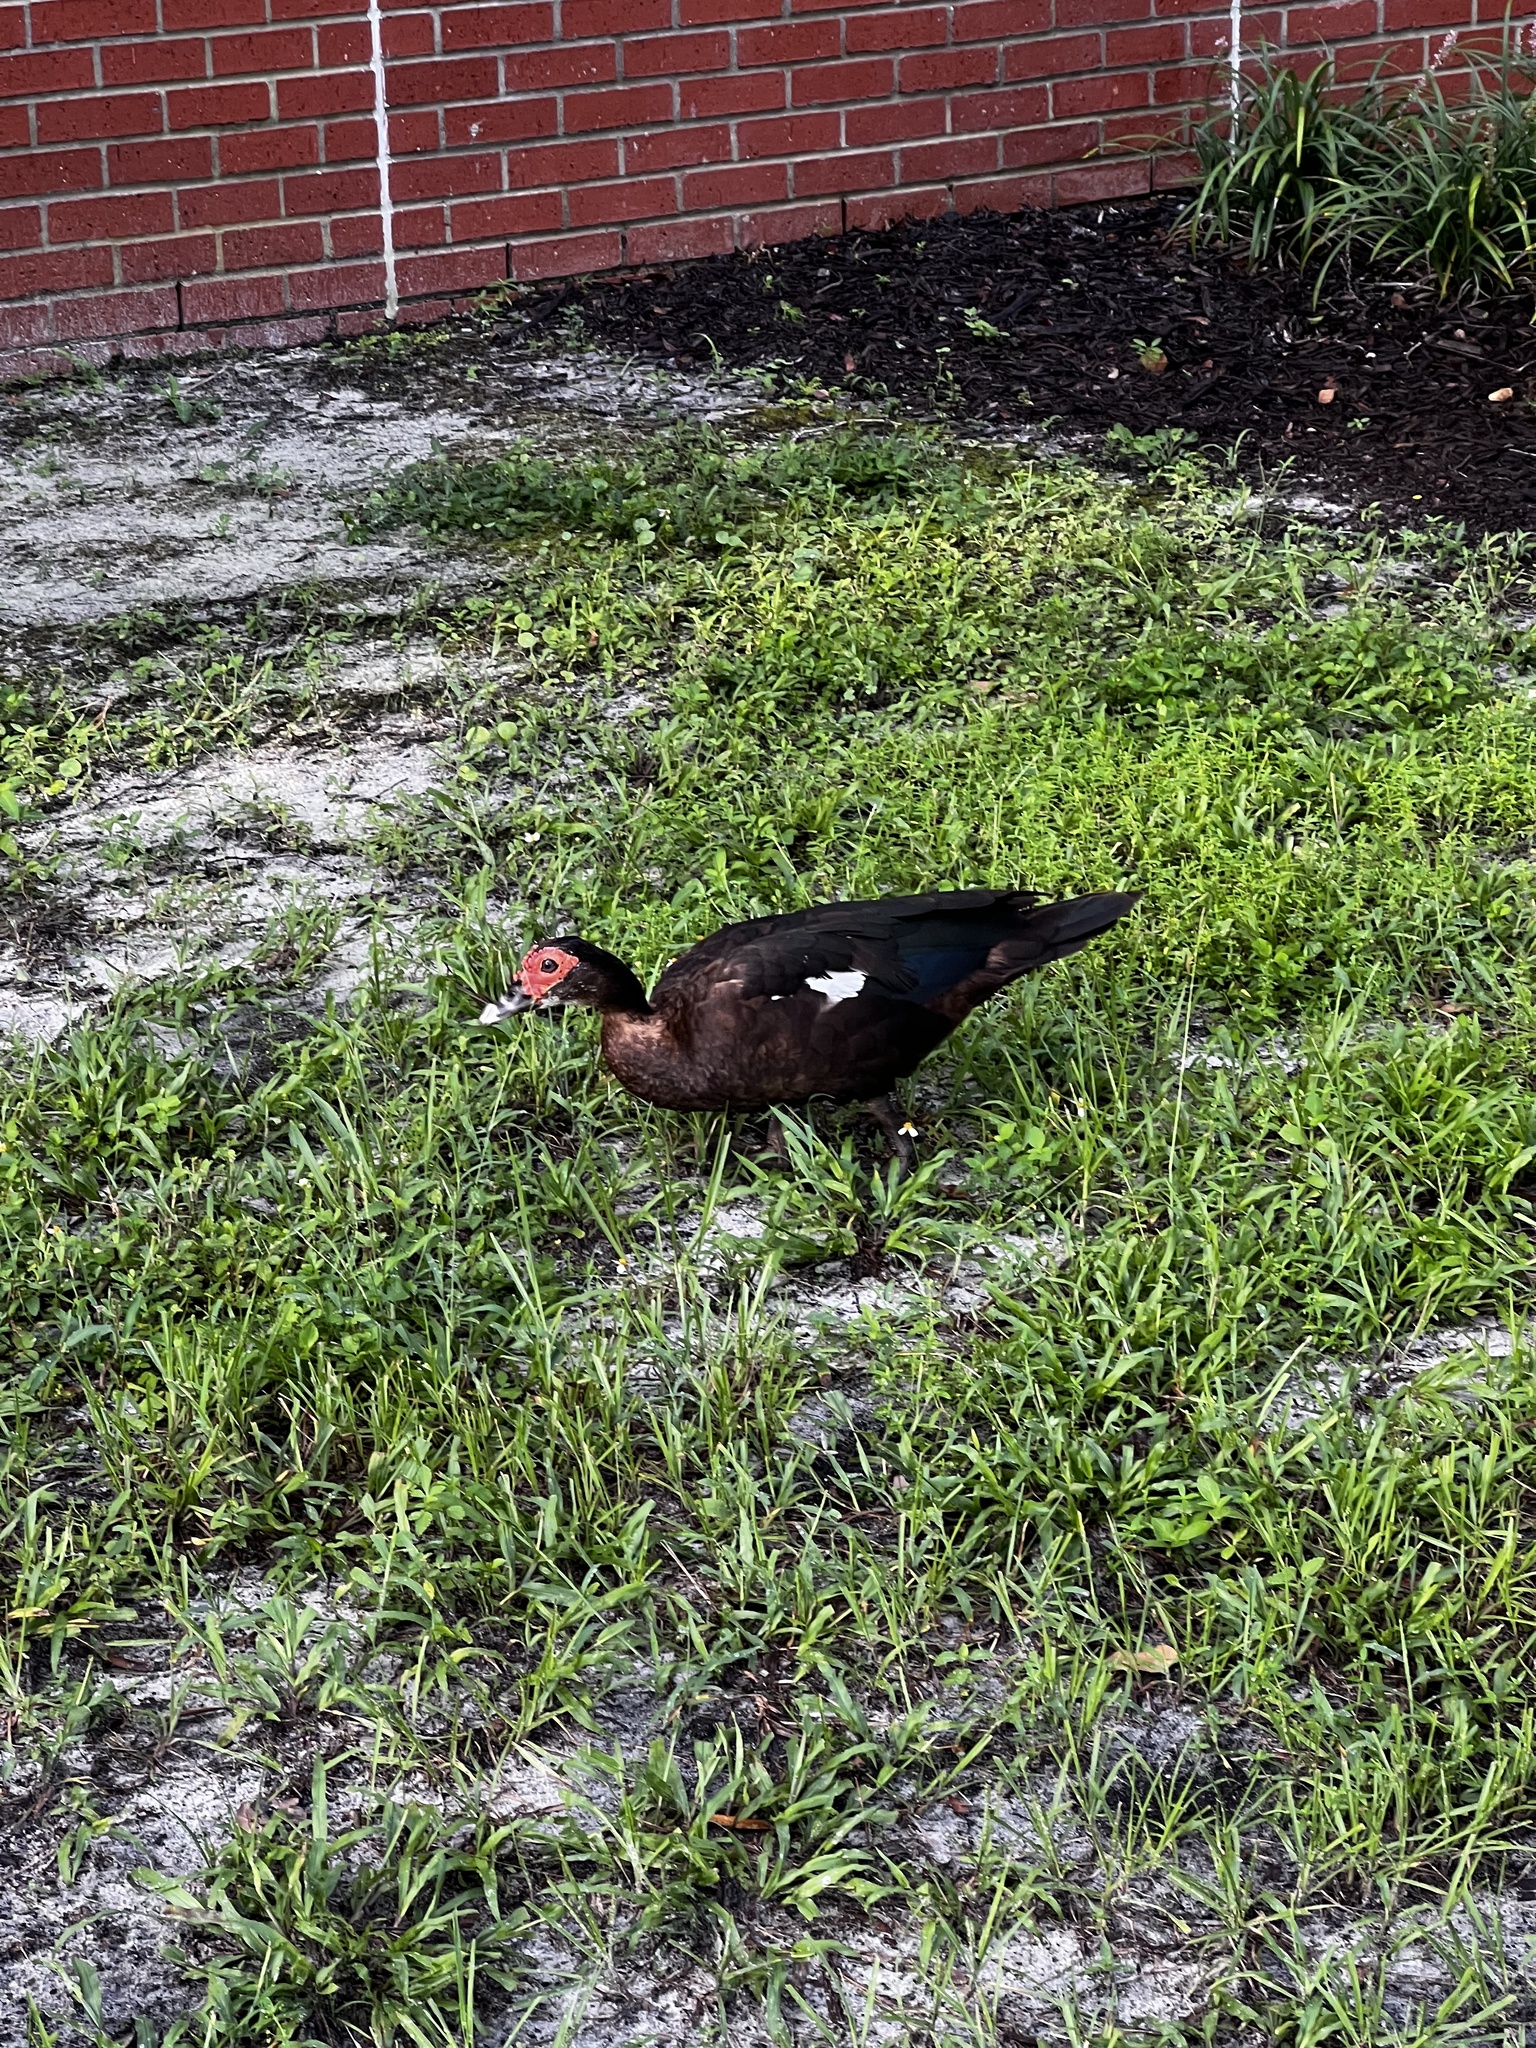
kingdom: Animalia
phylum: Chordata
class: Aves
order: Anseriformes
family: Anatidae
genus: Cairina
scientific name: Cairina moschata
